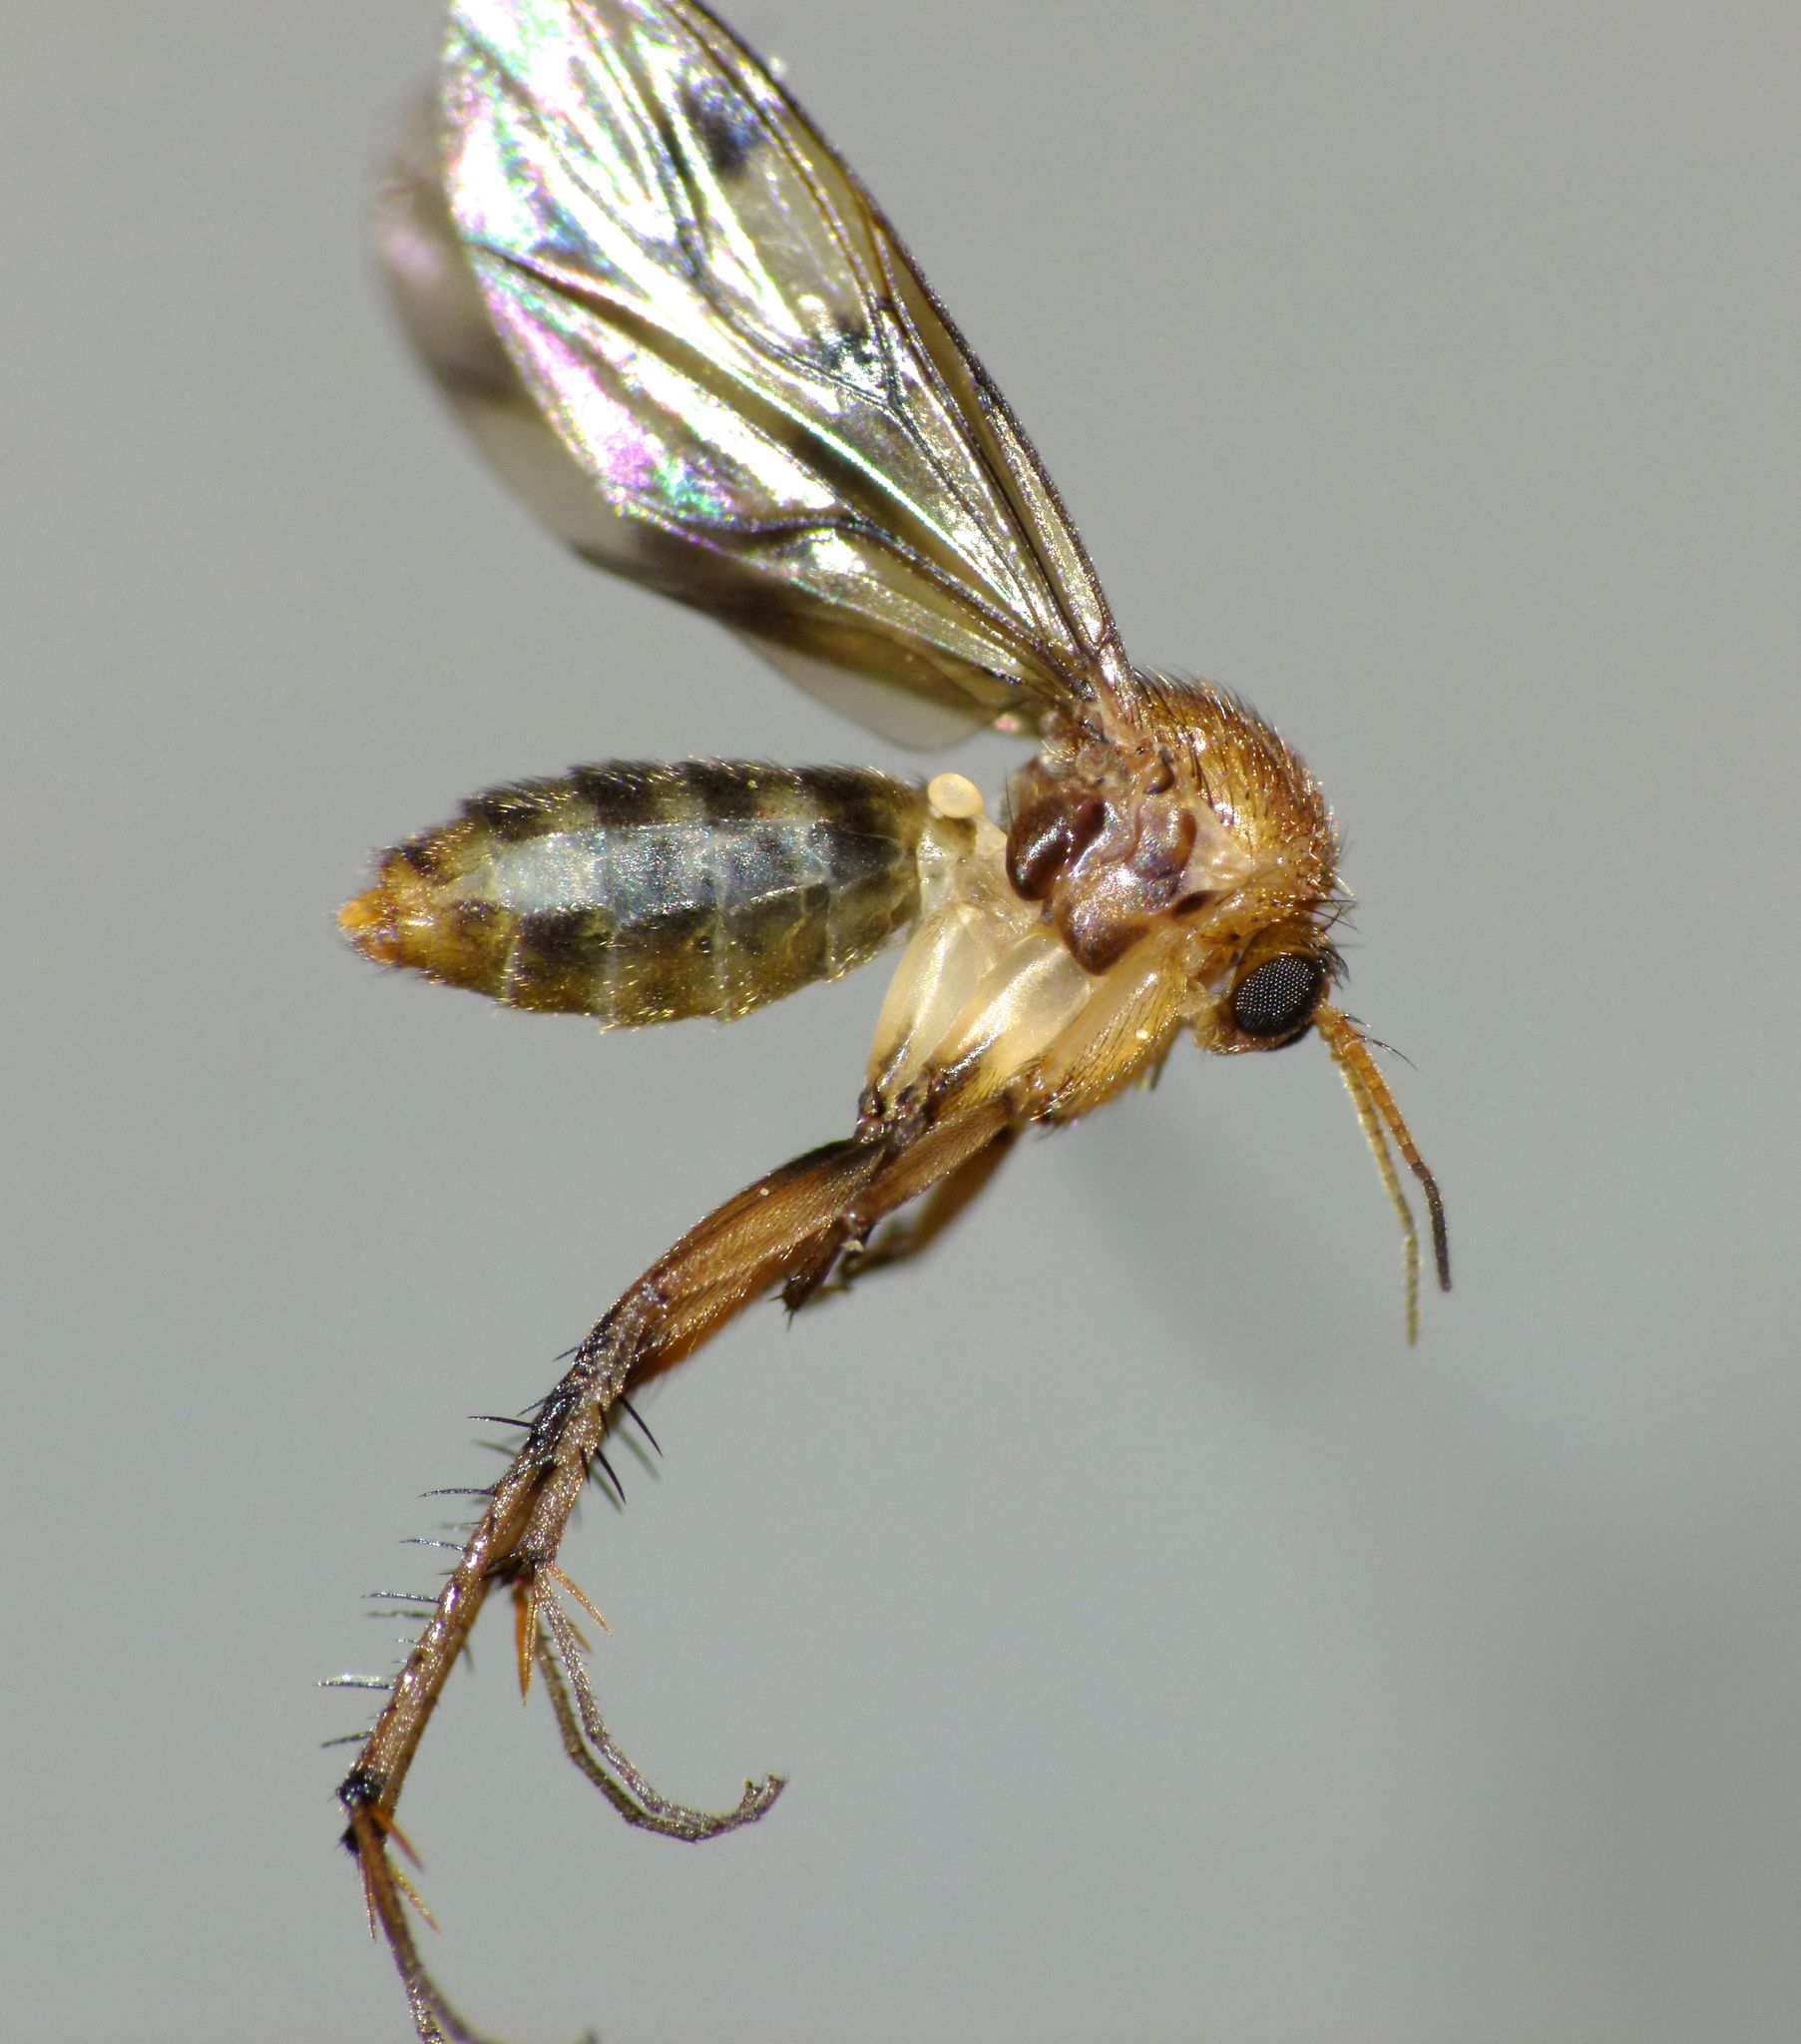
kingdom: Animalia
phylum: Arthropoda
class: Insecta
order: Diptera
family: Mycetophilidae
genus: Anomalomyia
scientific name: Anomalomyia guttata
